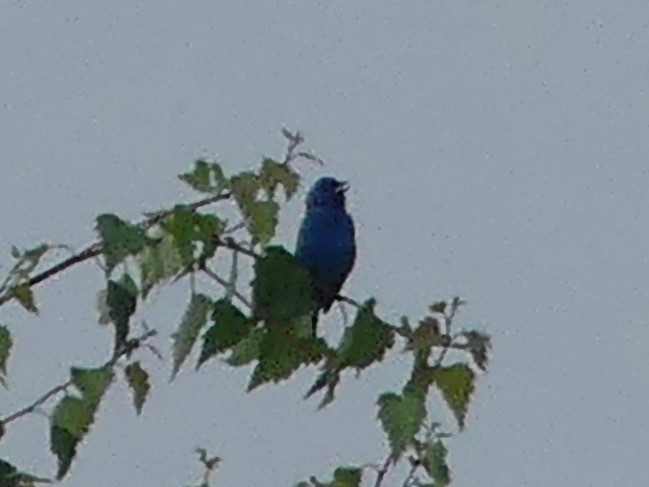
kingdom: Animalia
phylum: Chordata
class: Aves
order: Passeriformes
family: Cardinalidae
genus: Passerina
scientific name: Passerina cyanea
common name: Indigo bunting
